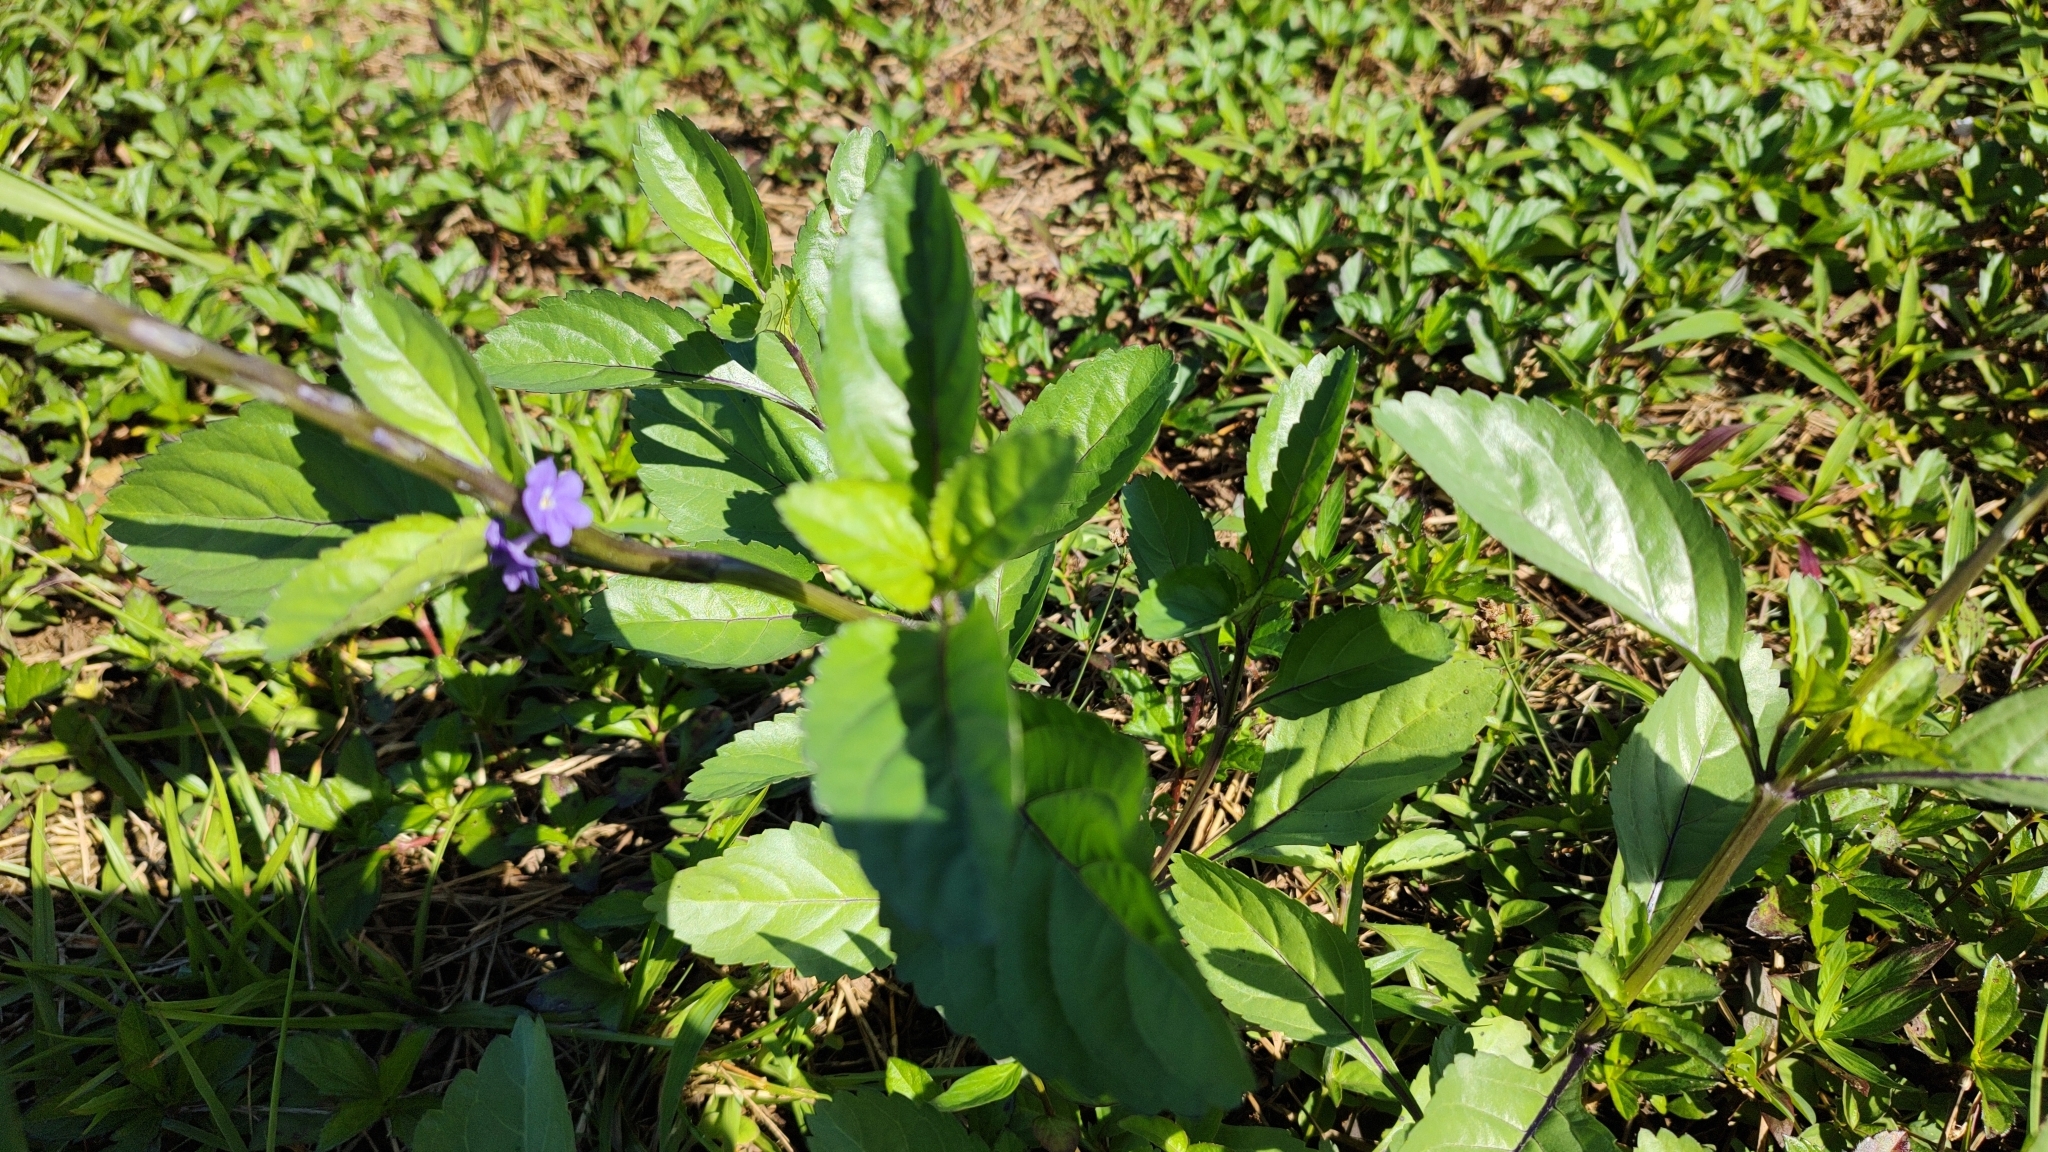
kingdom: Plantae
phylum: Tracheophyta
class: Magnoliopsida
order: Lamiales
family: Verbenaceae
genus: Stachytarpheta
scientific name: Stachytarpheta jamaicensis
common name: Light-blue snakeweed
